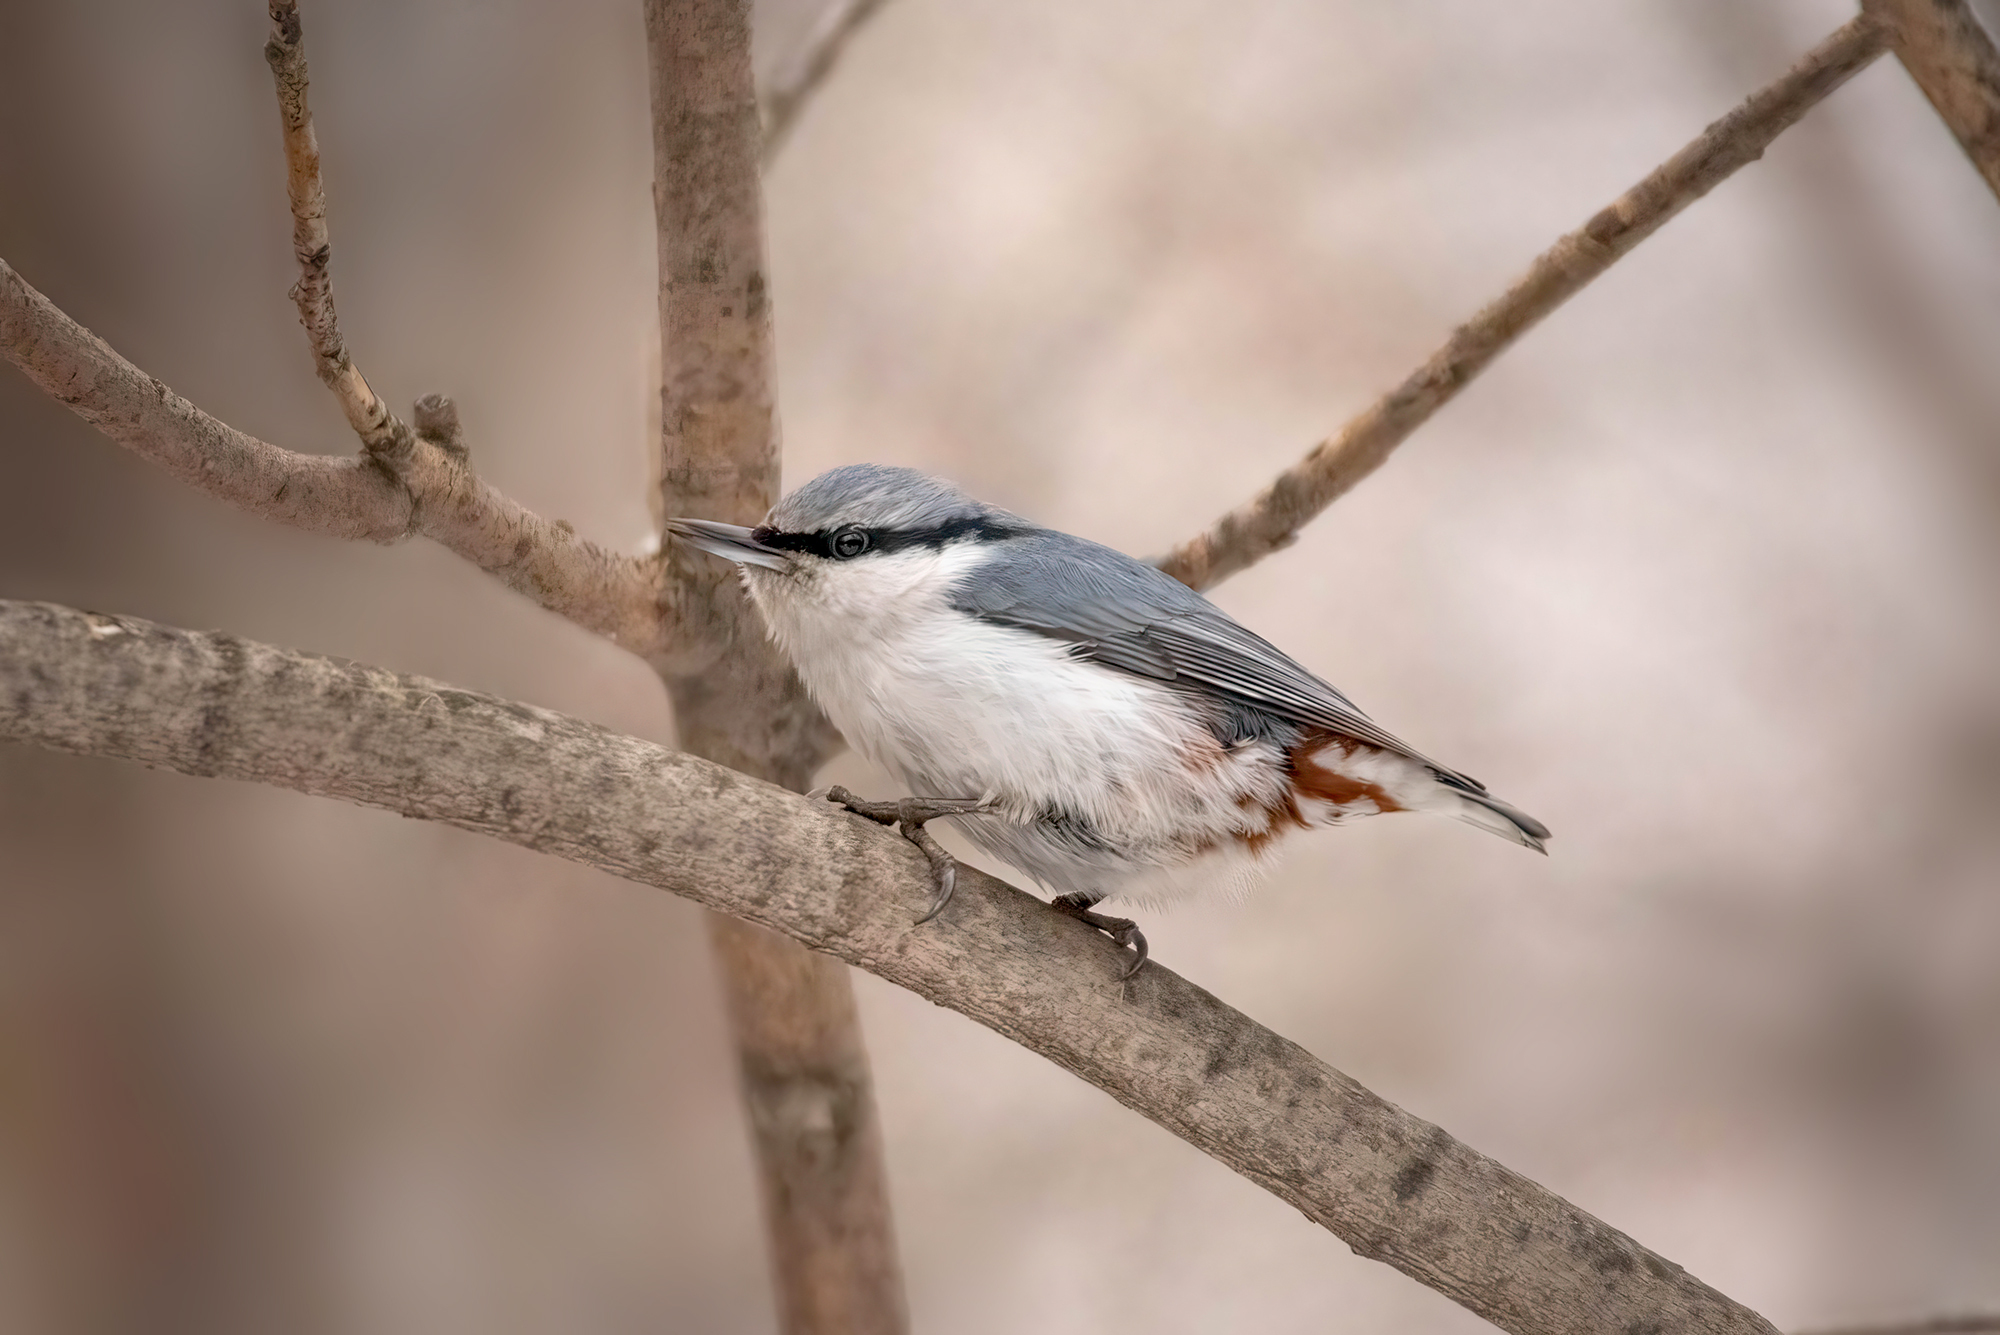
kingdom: Animalia
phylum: Chordata
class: Aves
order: Passeriformes
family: Sittidae
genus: Sitta
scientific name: Sitta europaea
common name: Eurasian nuthatch
